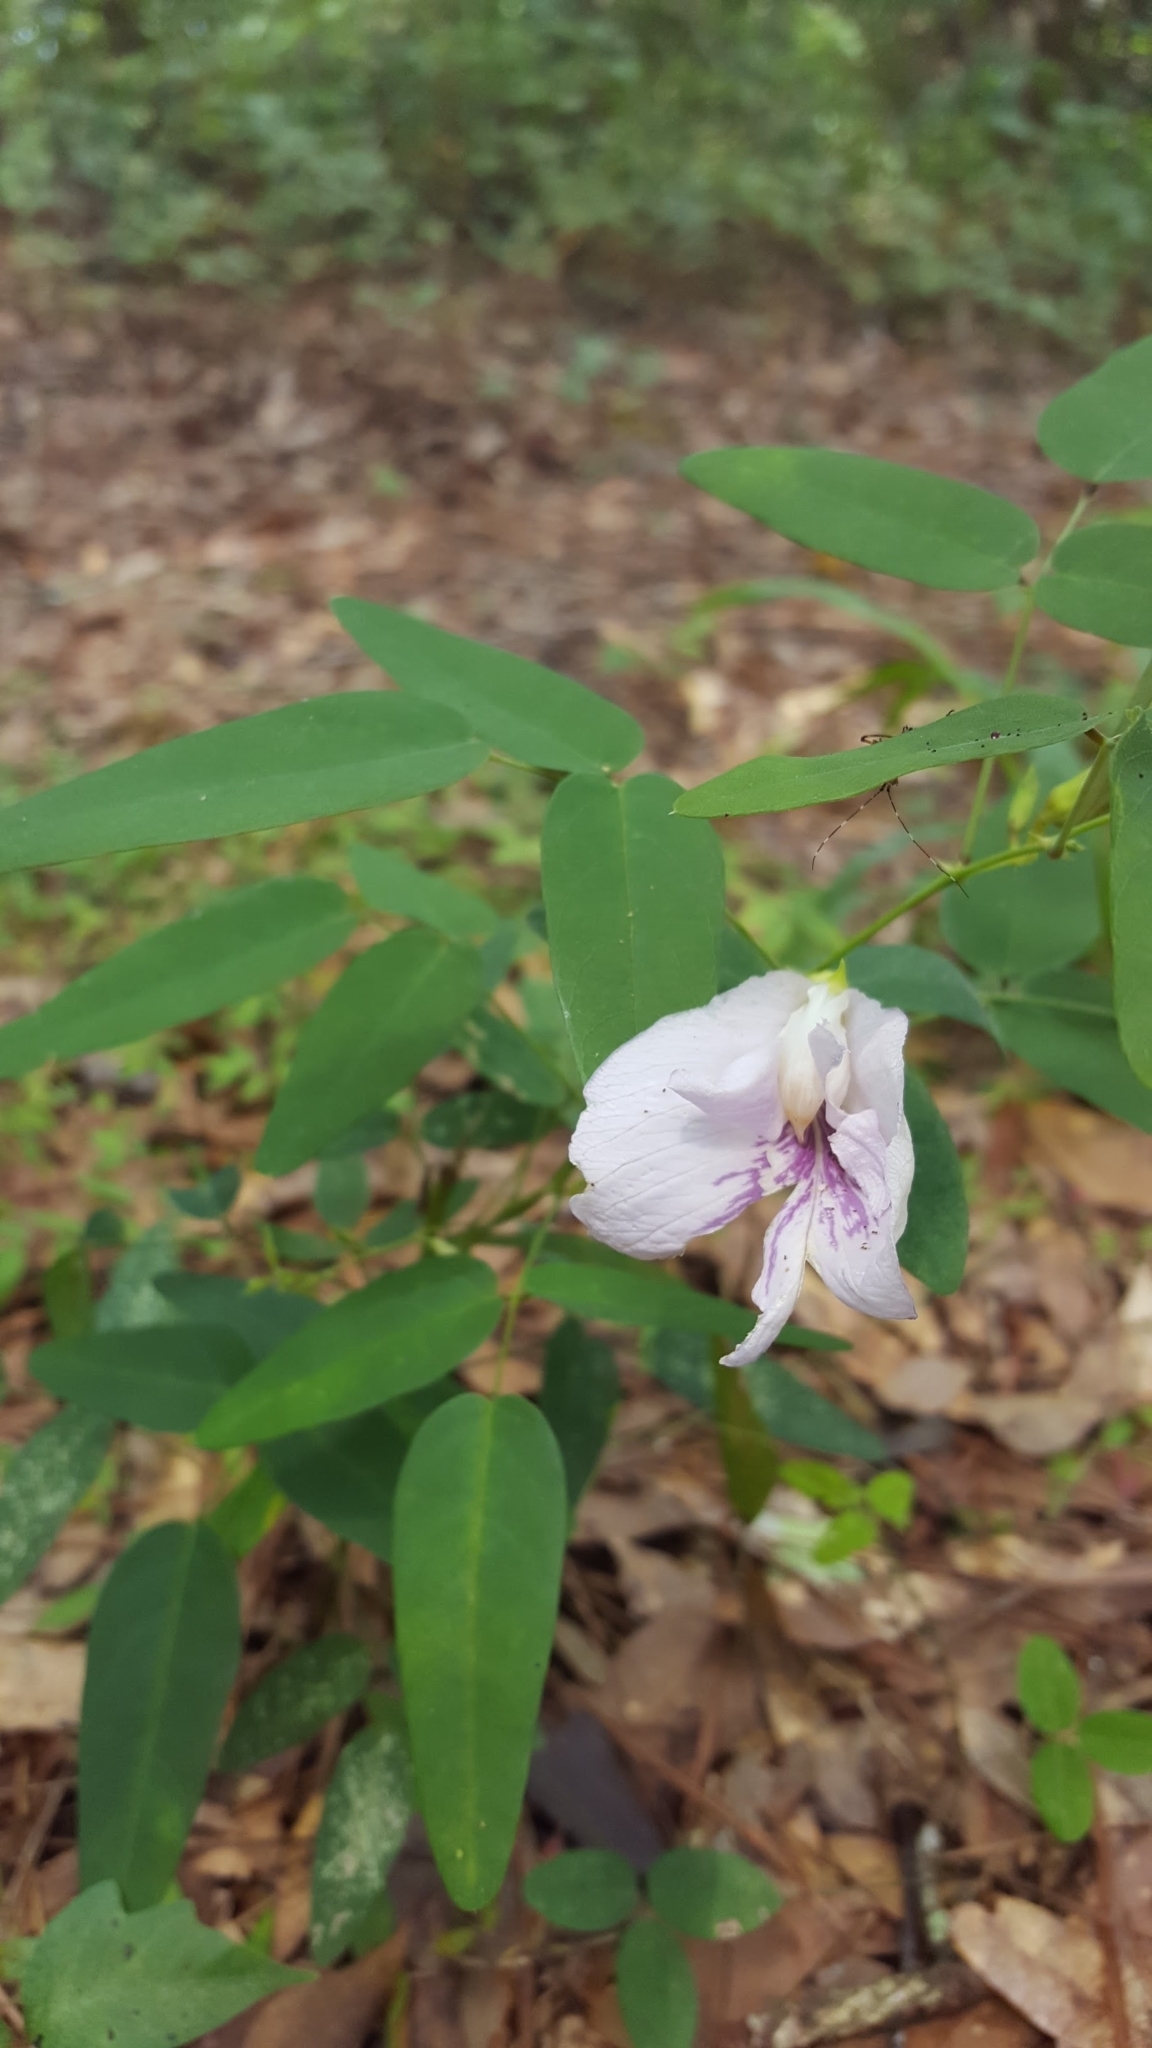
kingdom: Plantae
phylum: Tracheophyta
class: Magnoliopsida
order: Fabales
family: Fabaceae
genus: Clitoria
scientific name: Clitoria mariana
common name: Butterfly-pea
